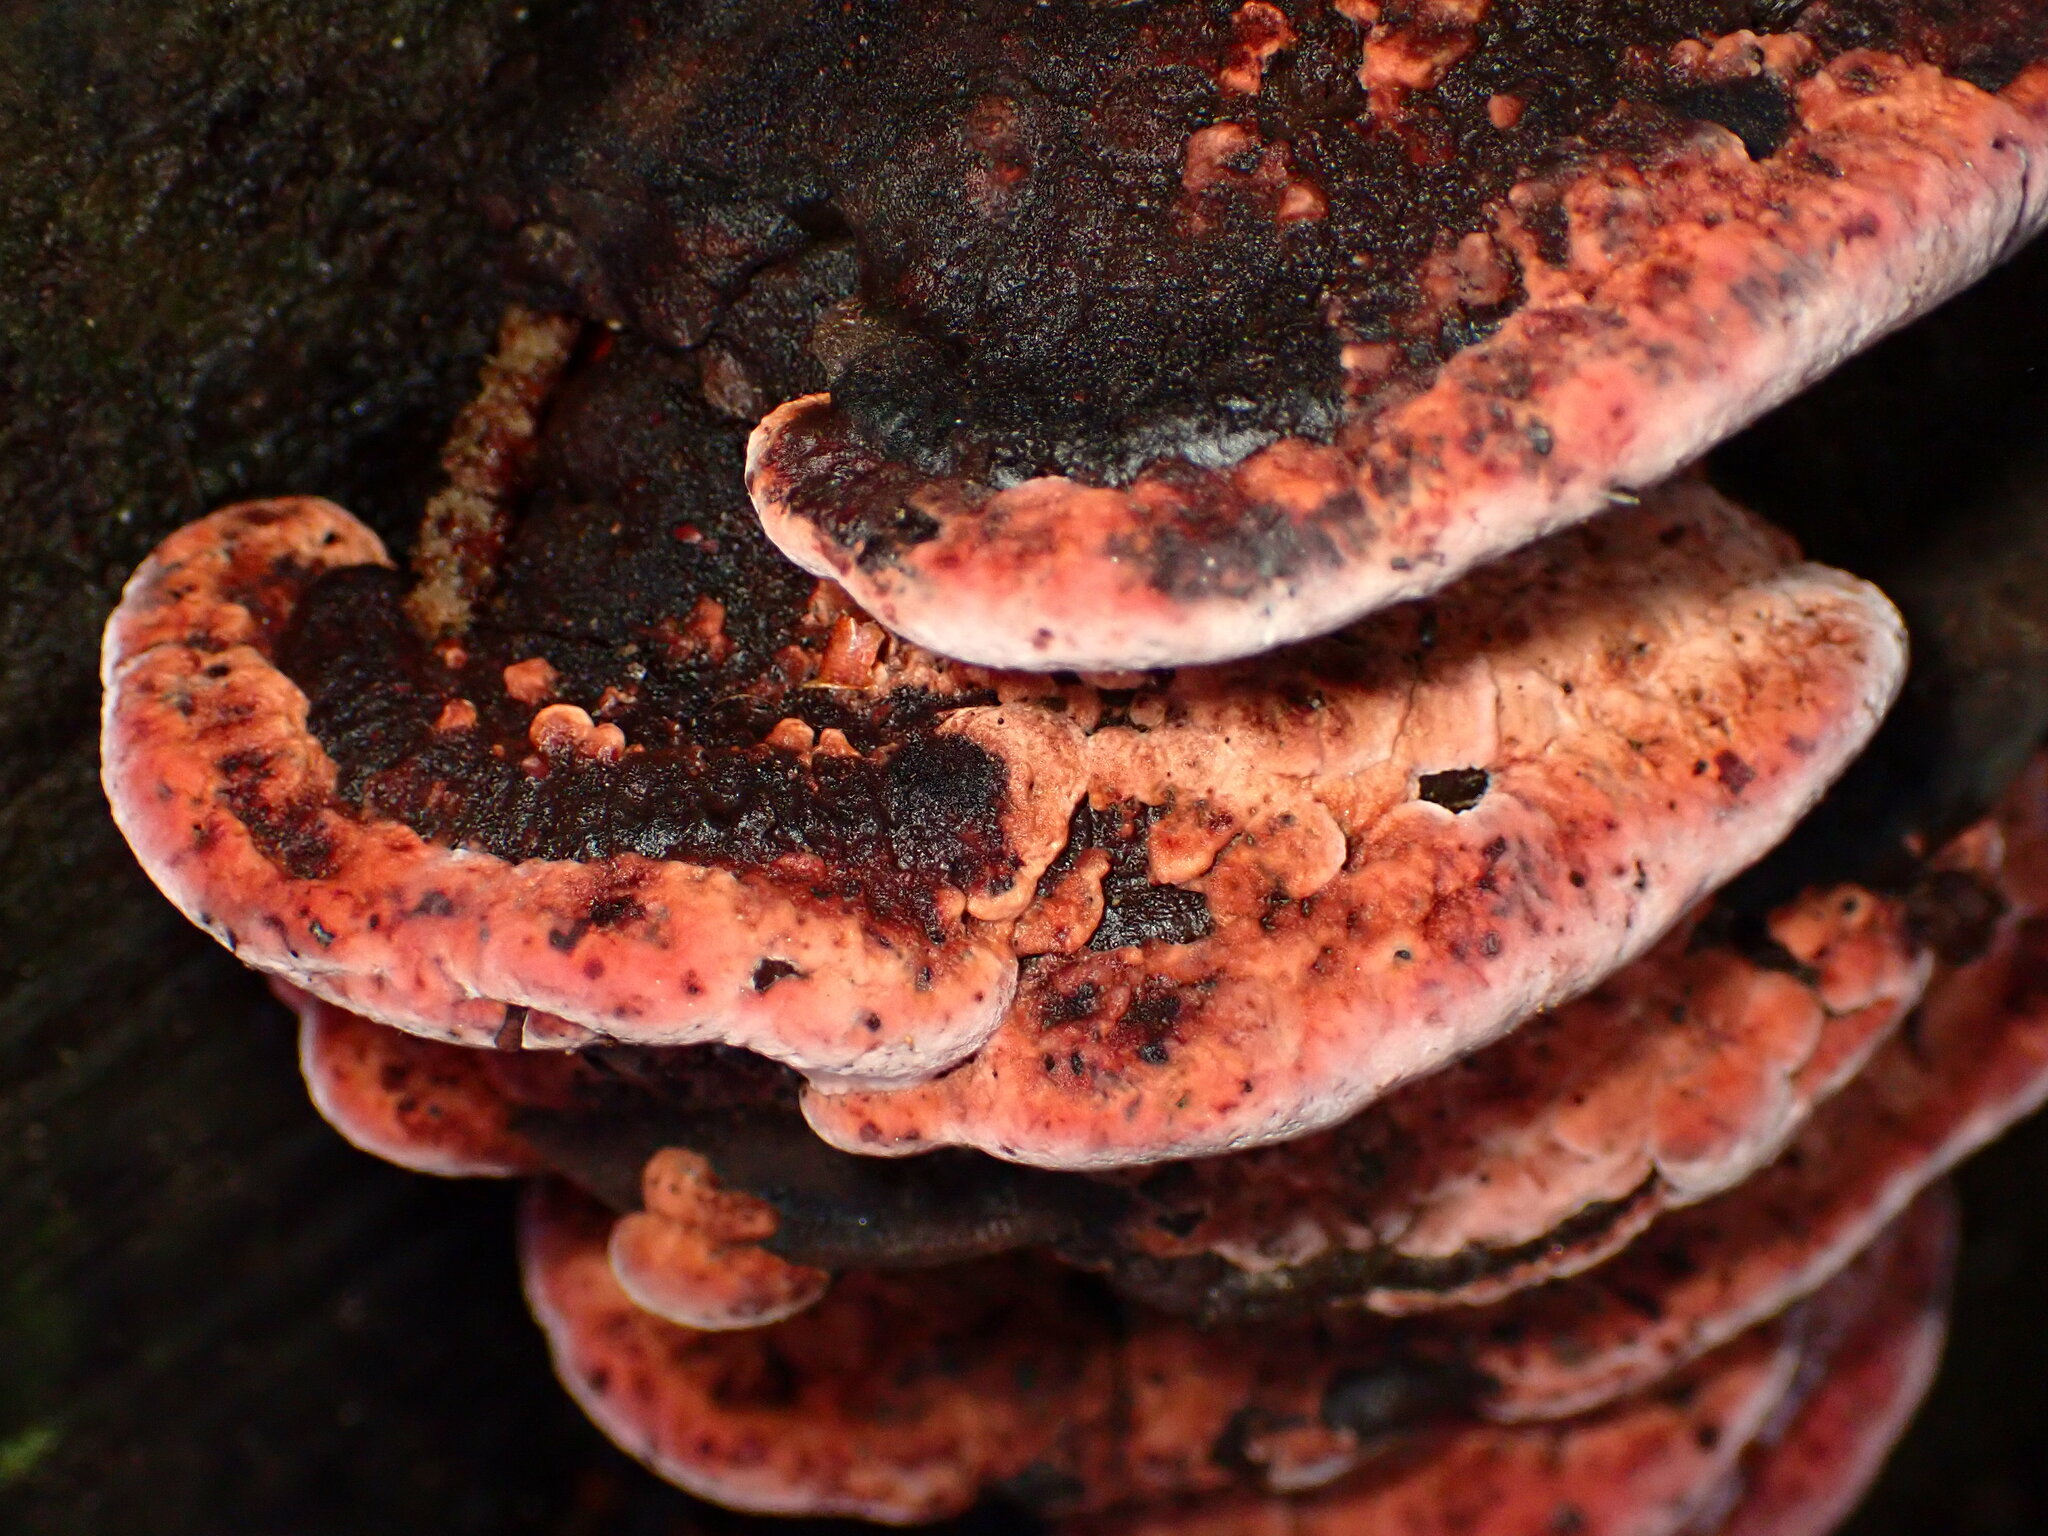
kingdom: Fungi
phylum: Basidiomycota
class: Agaricomycetes
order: Polyporales
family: Fomitopsidaceae
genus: Rhodofomes
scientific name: Rhodofomes cajanderi
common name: Rosy conk
